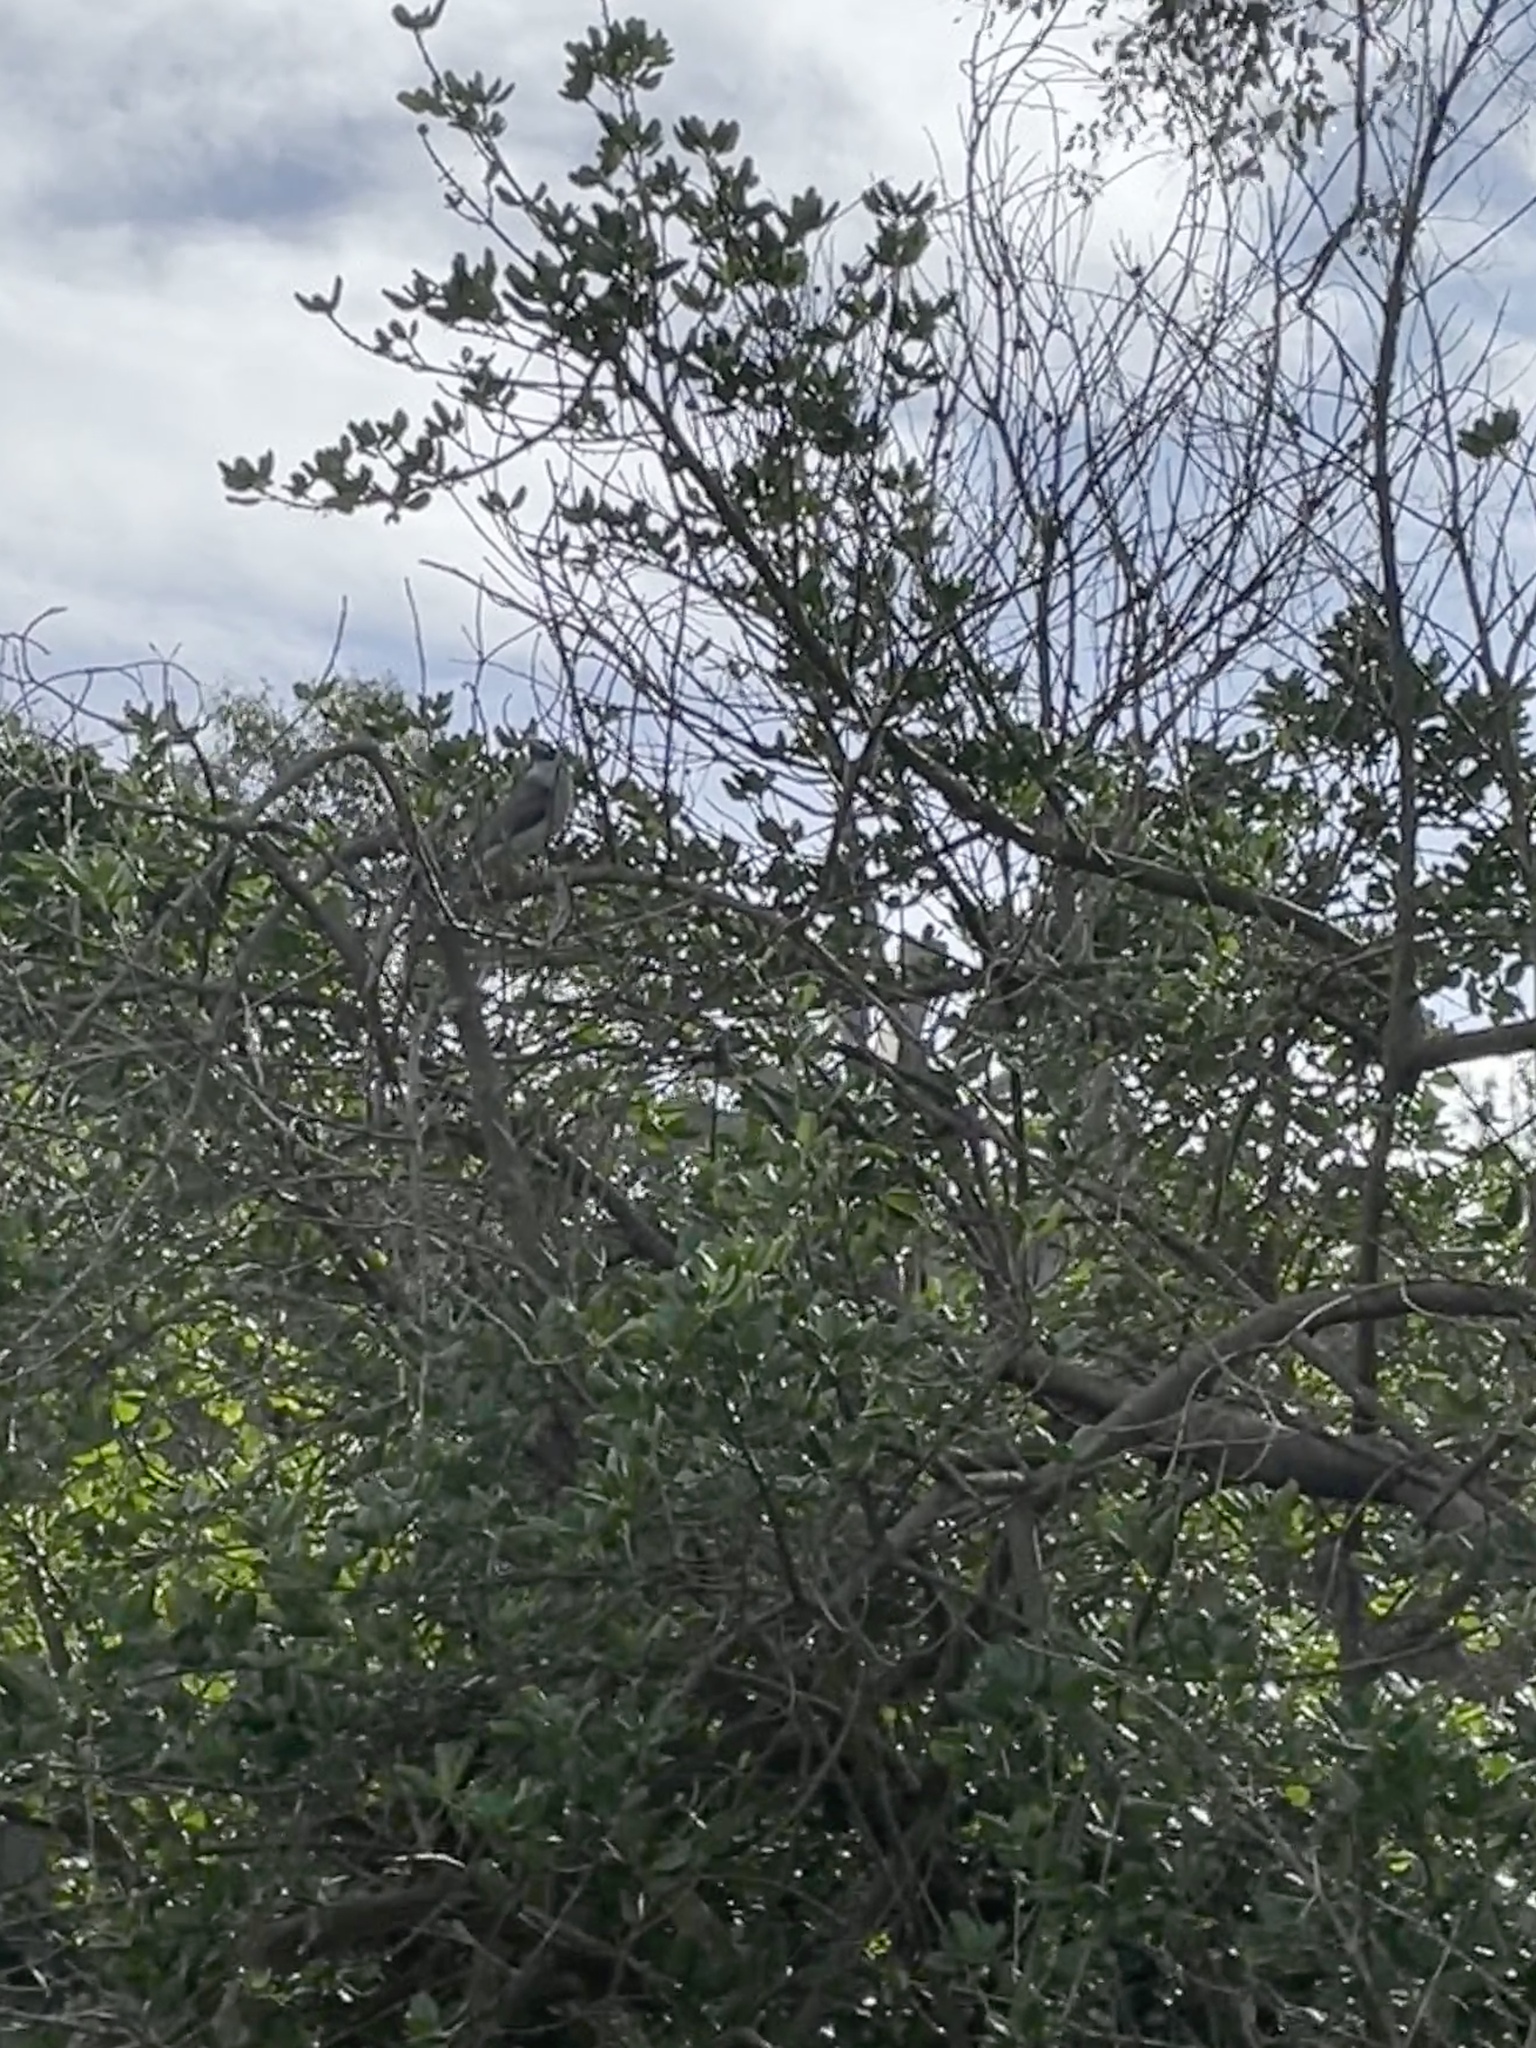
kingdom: Animalia
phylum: Chordata
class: Aves
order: Passeriformes
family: Meliphagidae
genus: Manorina
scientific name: Manorina melanocephala
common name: Noisy miner
